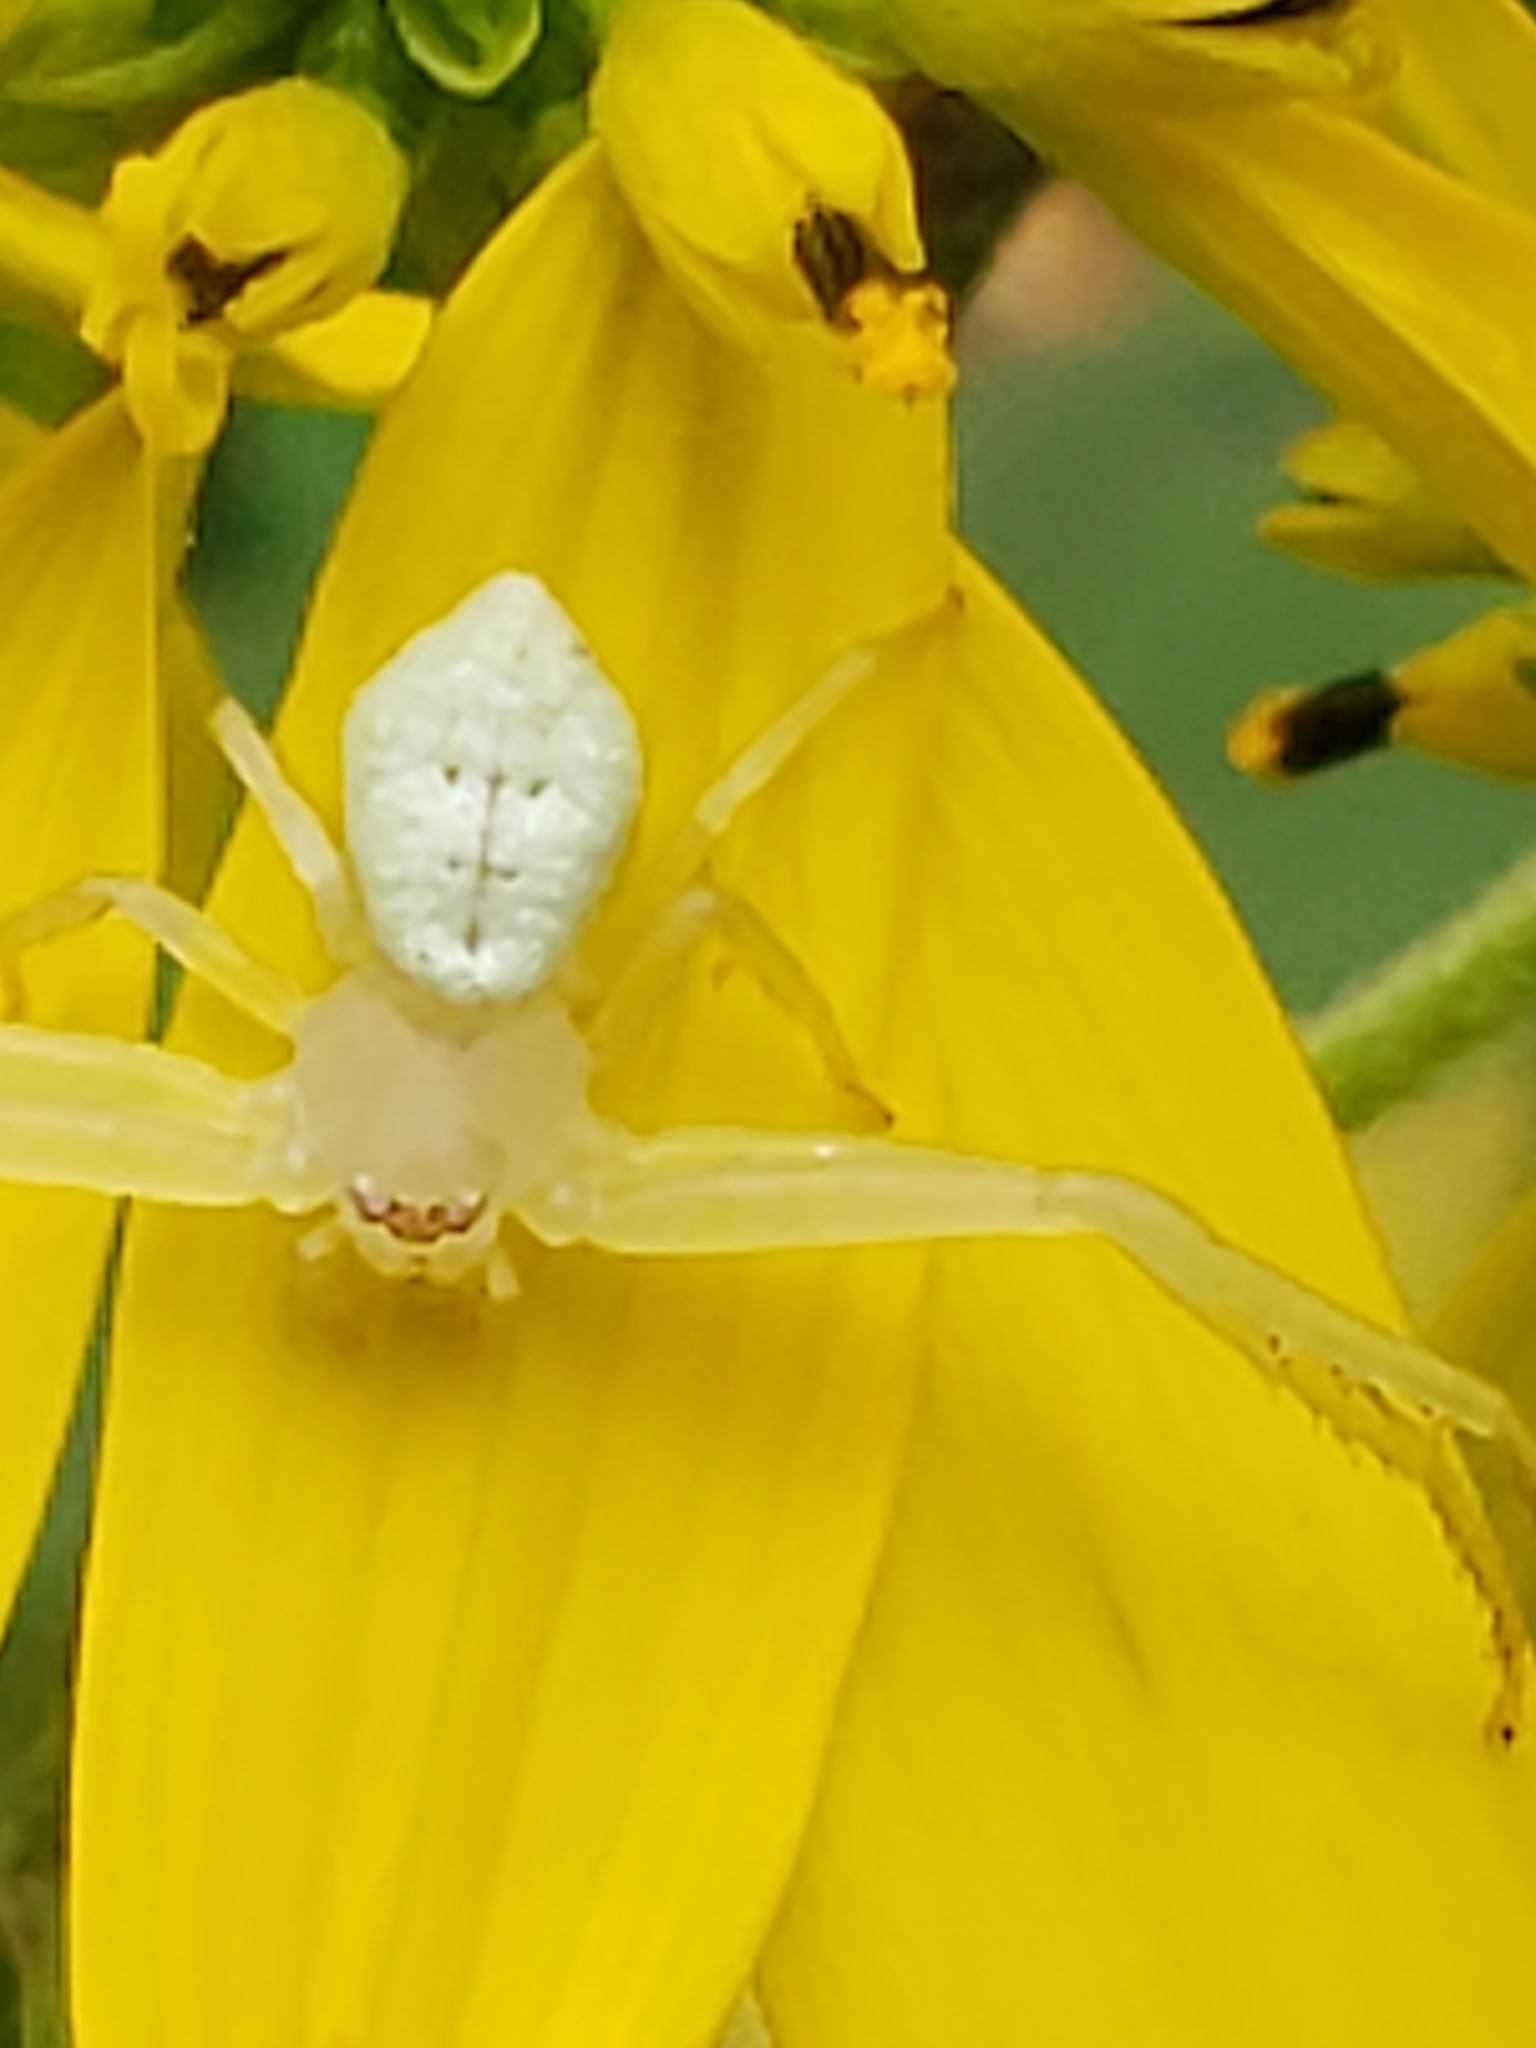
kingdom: Animalia
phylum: Arthropoda
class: Arachnida
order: Araneae
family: Thomisidae
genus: Misumessus
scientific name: Misumessus oblongus
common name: American green crab spider
